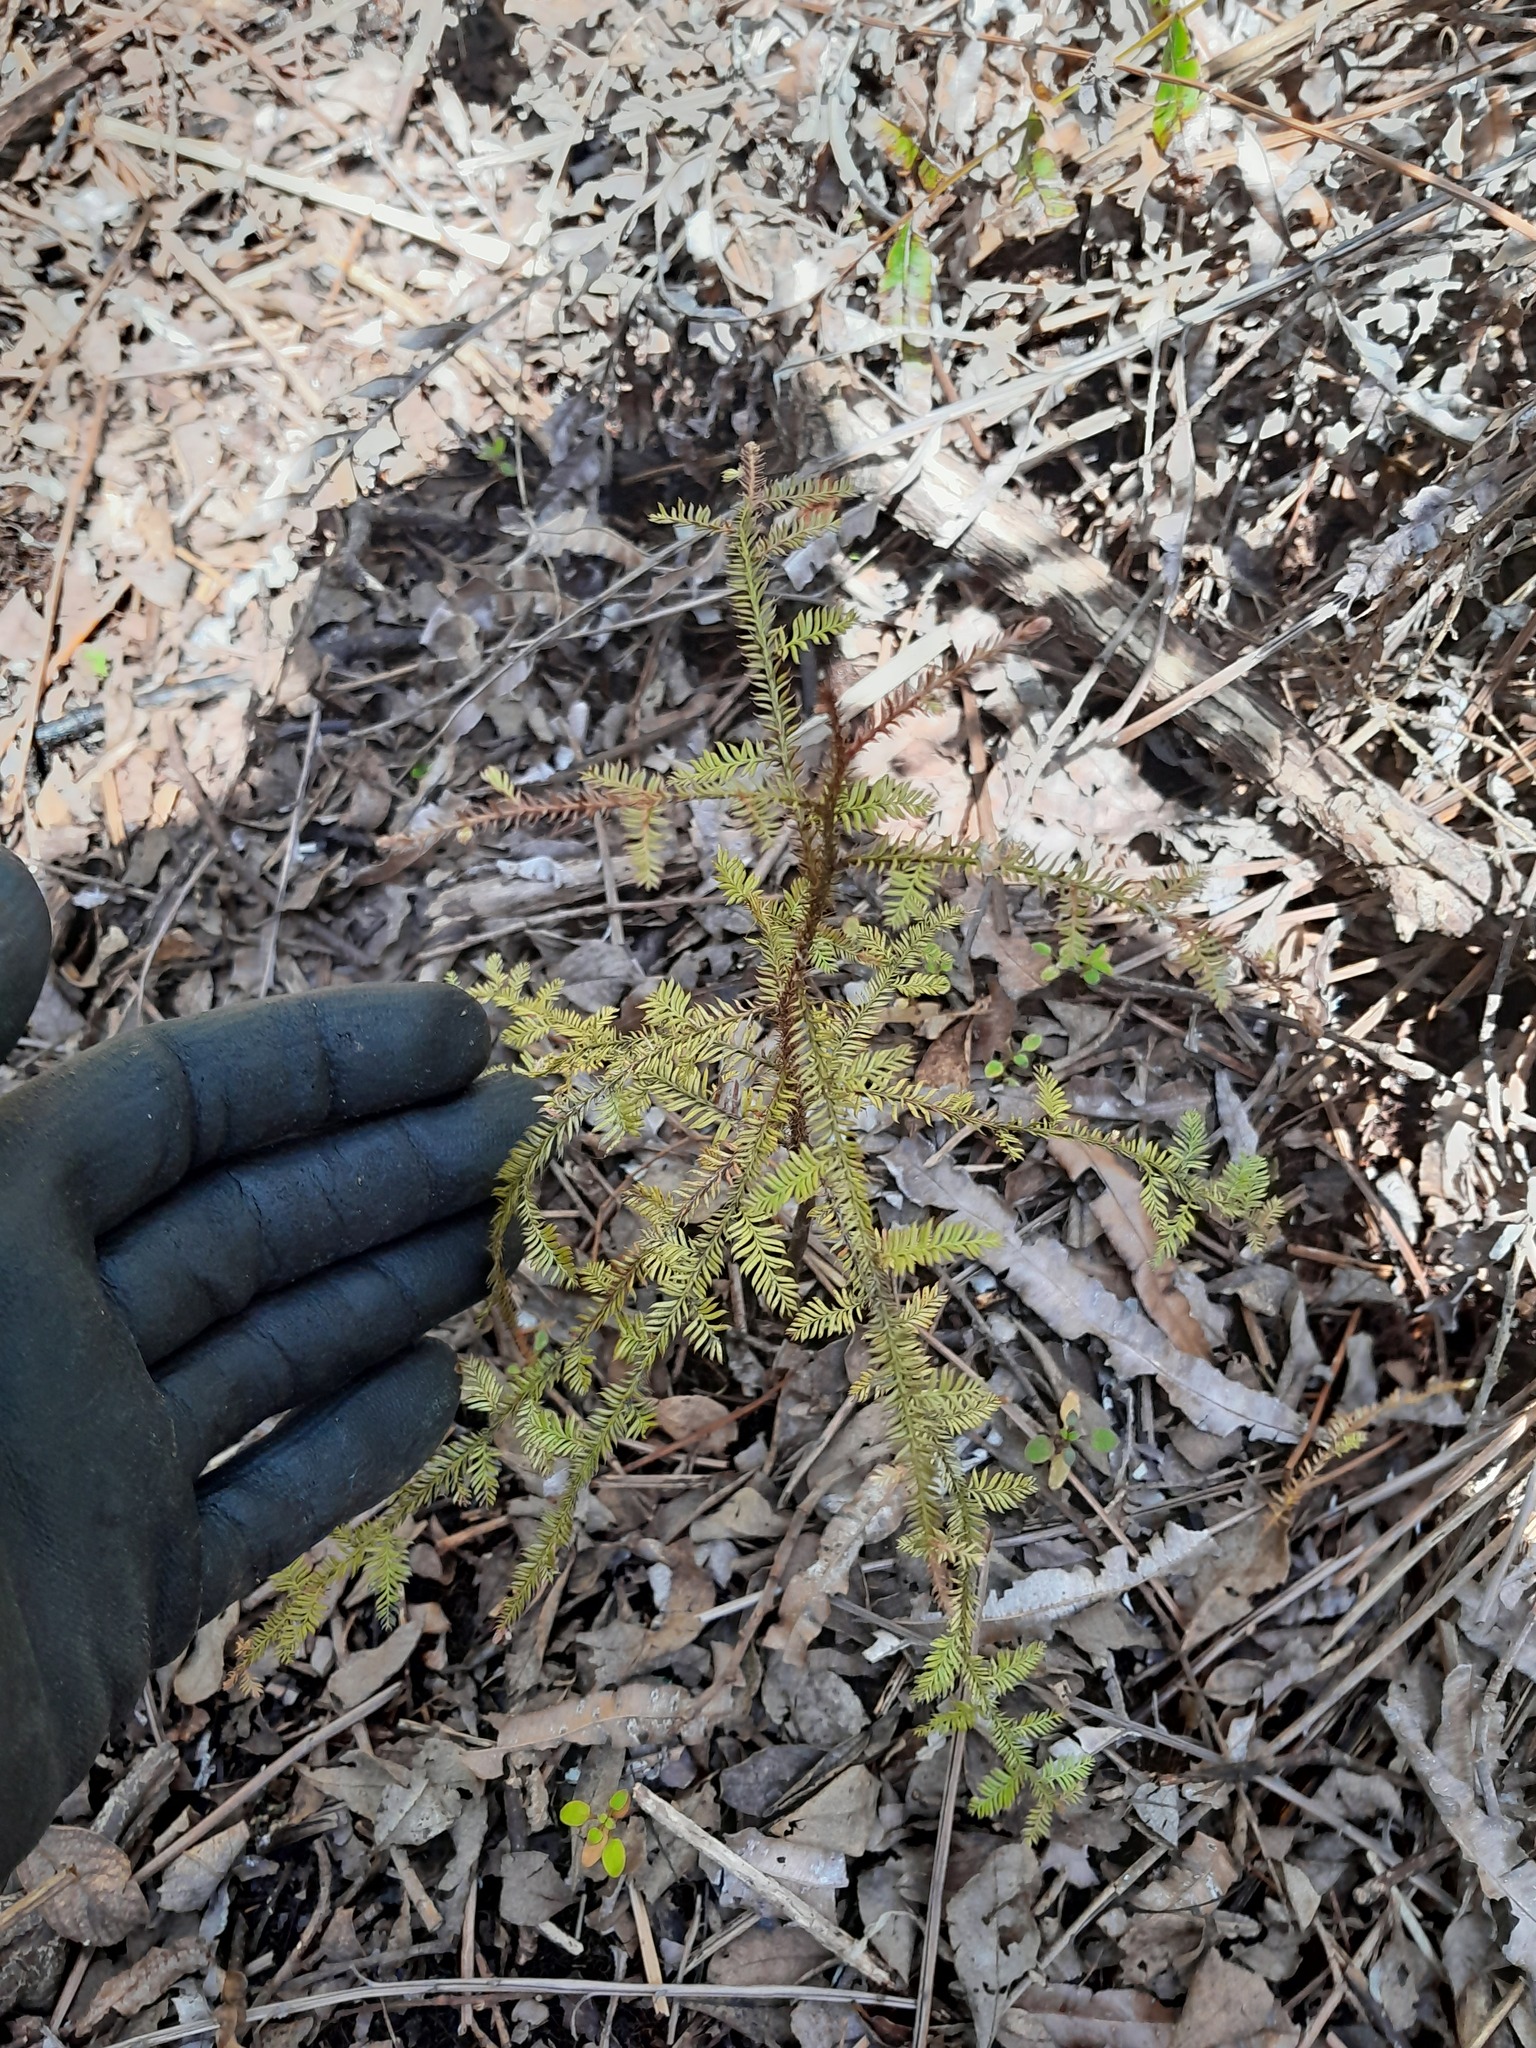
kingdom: Plantae
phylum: Tracheophyta
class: Pinopsida
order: Pinales
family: Podocarpaceae
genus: Dacrycarpus
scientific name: Dacrycarpus dacrydioides
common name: White pine
